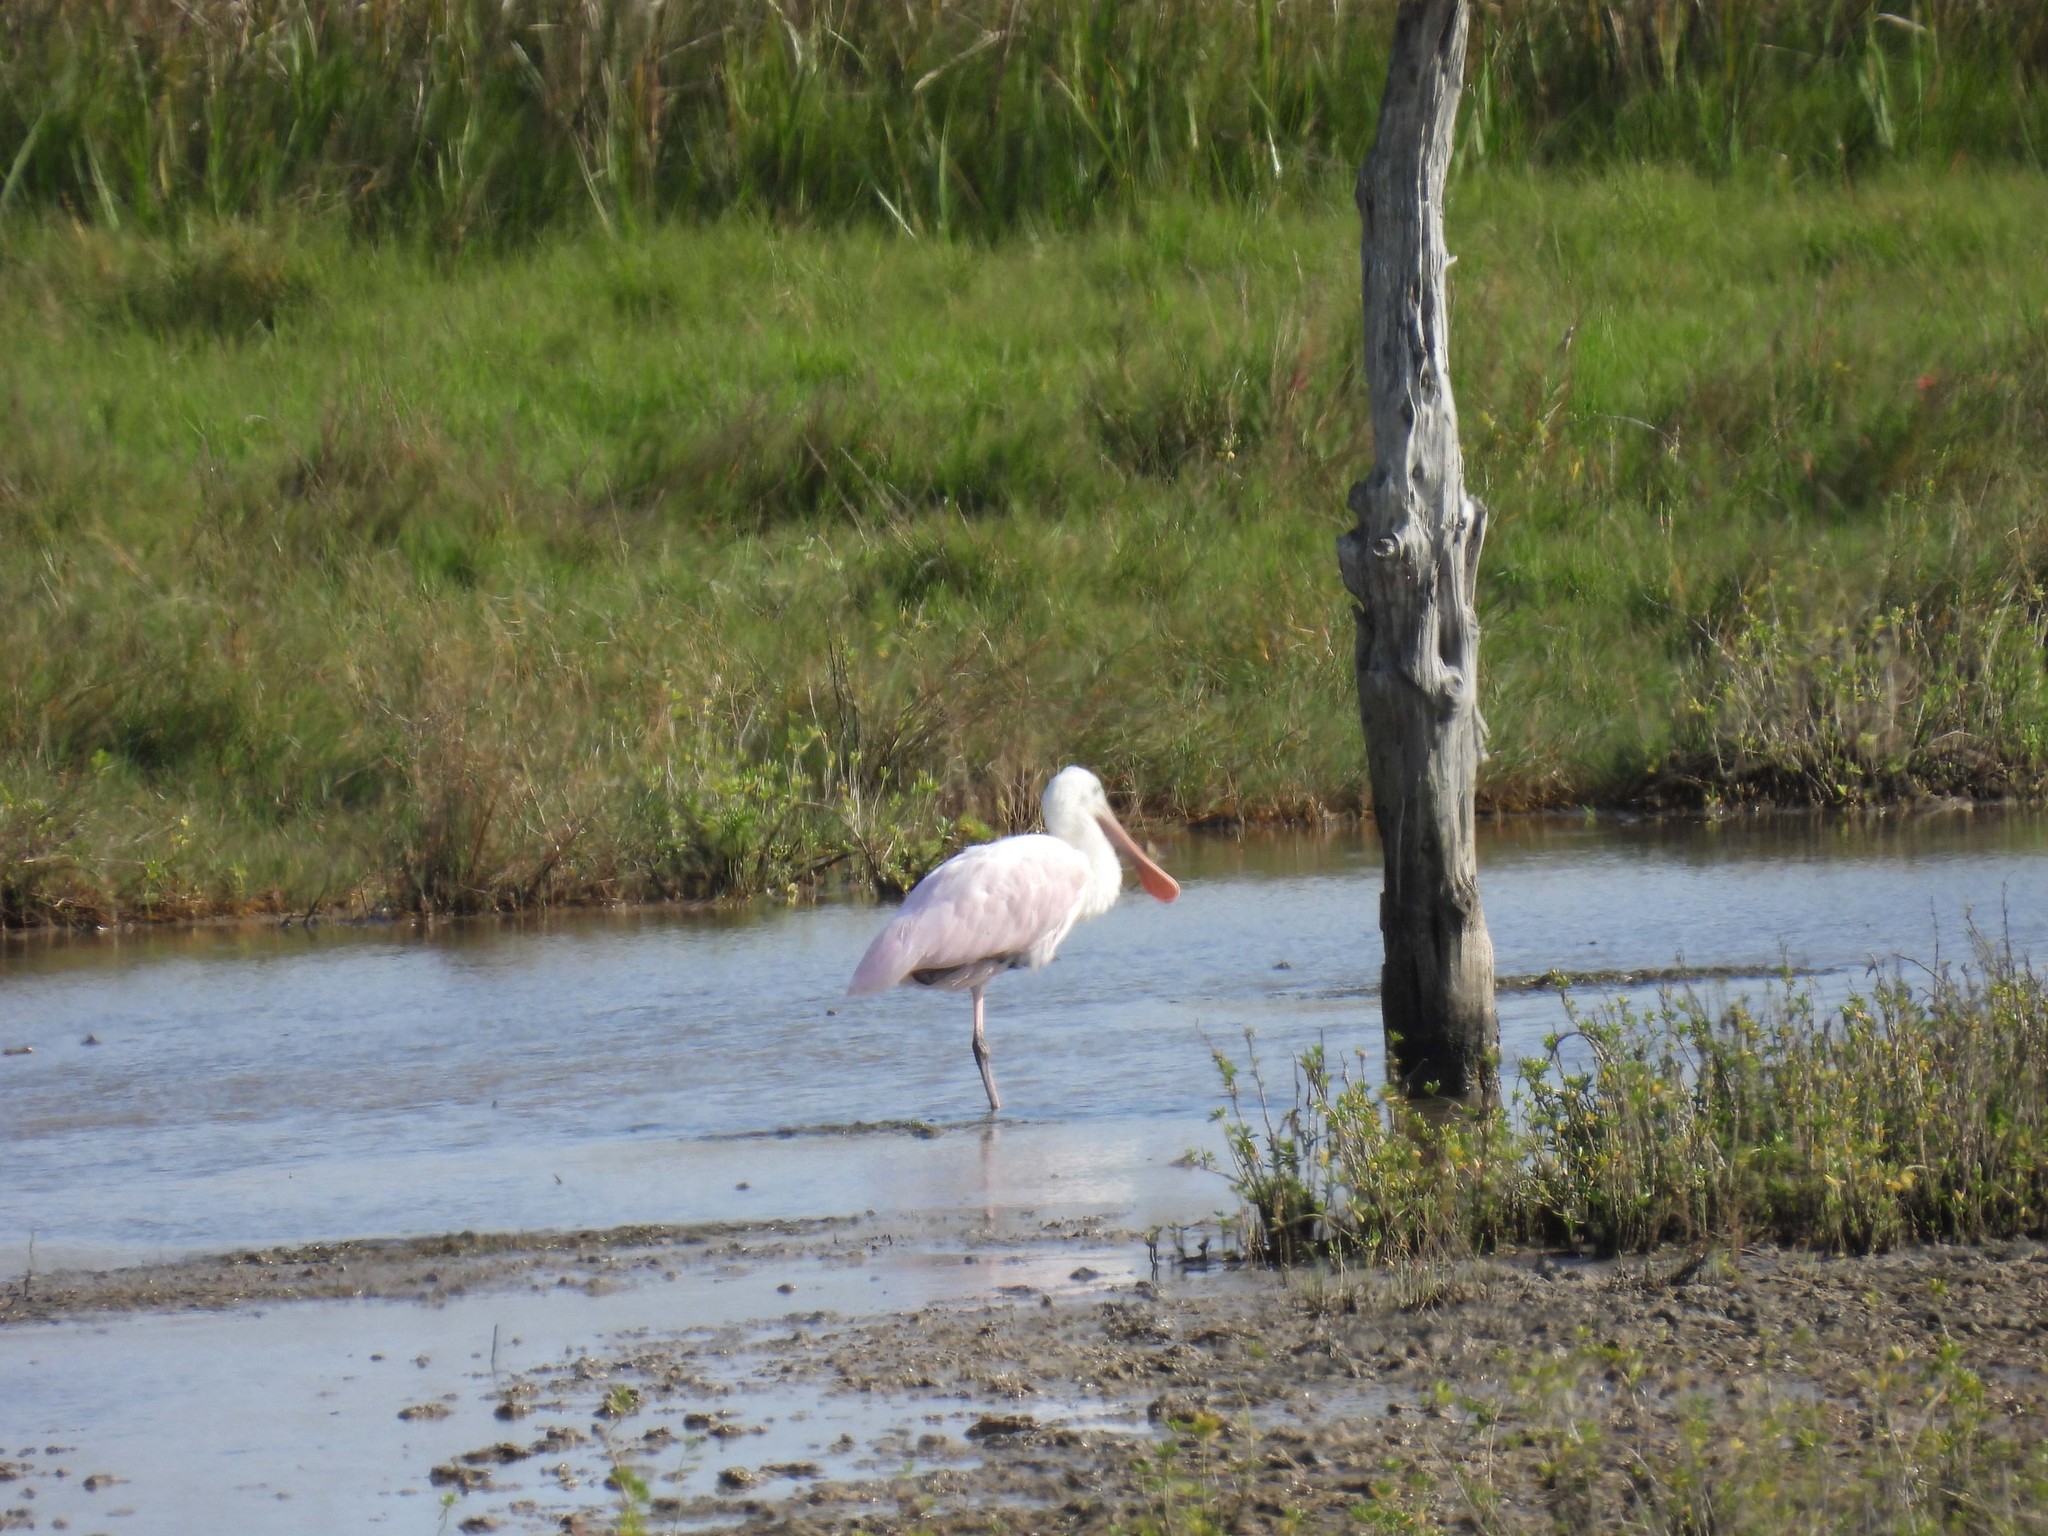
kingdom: Animalia
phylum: Chordata
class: Aves
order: Pelecaniformes
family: Threskiornithidae
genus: Platalea
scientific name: Platalea ajaja
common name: Roseate spoonbill
